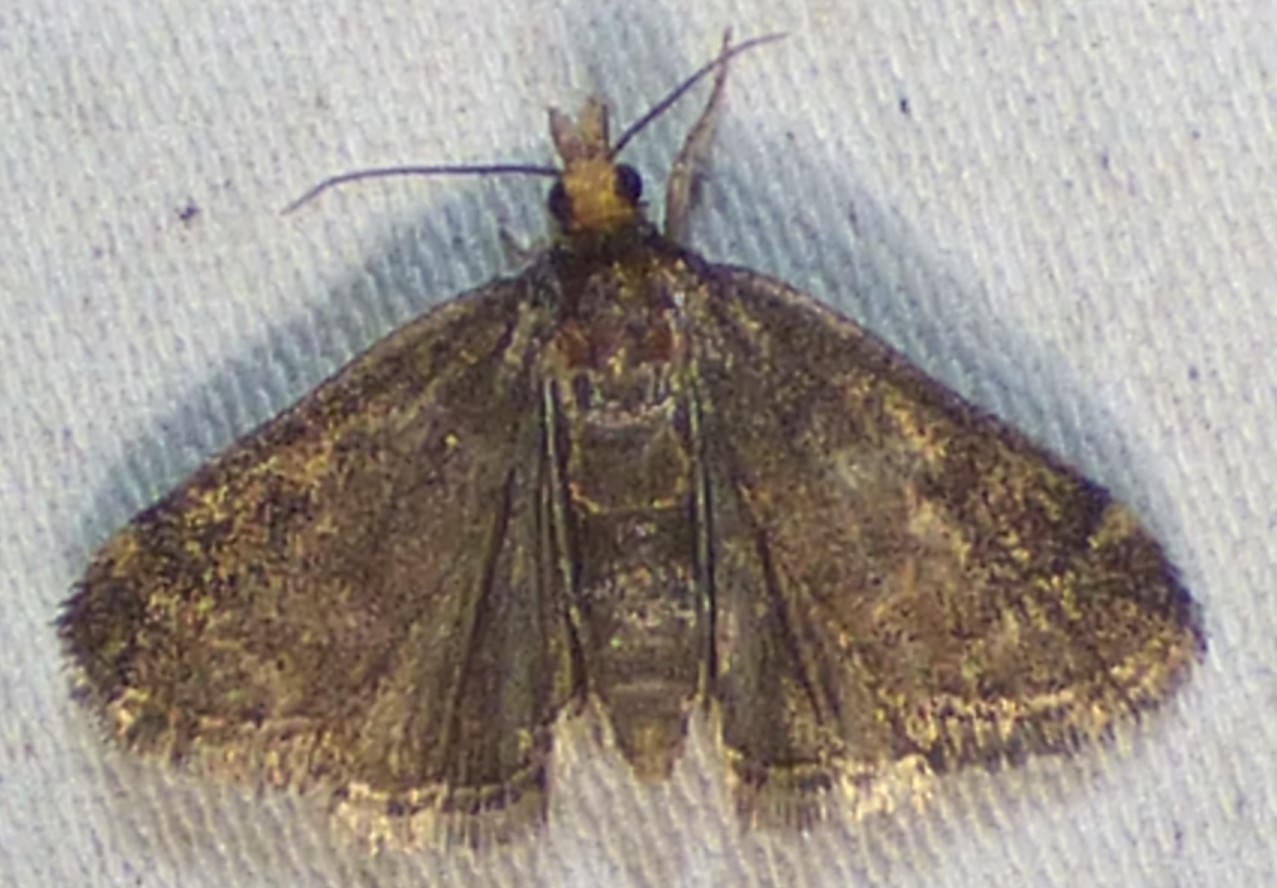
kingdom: Animalia
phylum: Arthropoda
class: Insecta
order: Lepidoptera
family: Crambidae
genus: Pyrausta
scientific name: Pyrausta merrickalis
